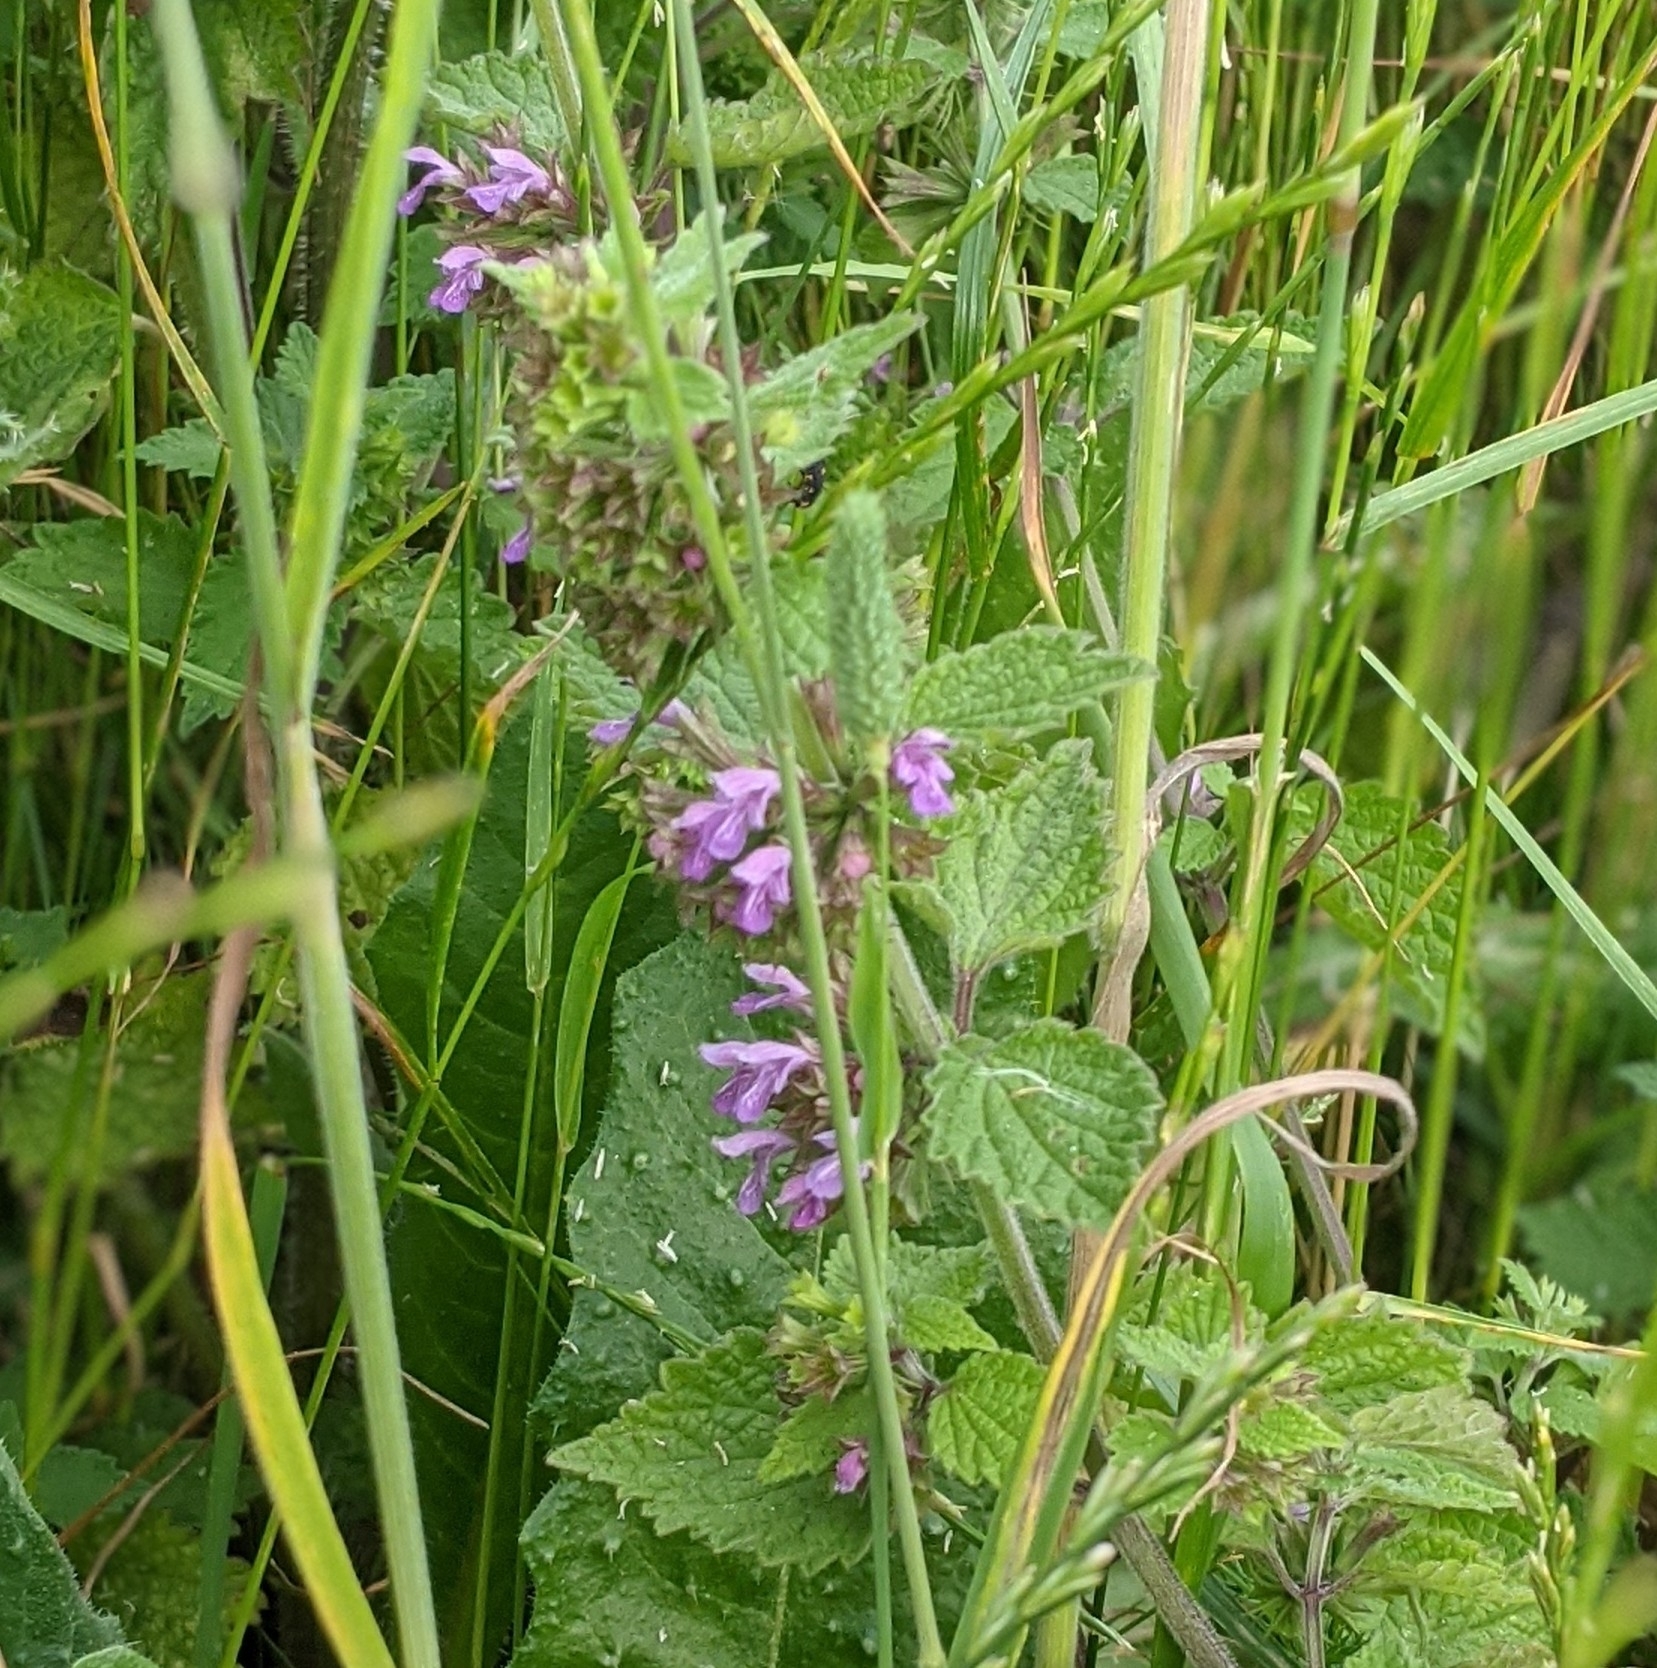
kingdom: Plantae
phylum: Tracheophyta
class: Magnoliopsida
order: Lamiales
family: Lamiaceae
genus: Ballota
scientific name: Ballota nigra
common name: Black horehound
